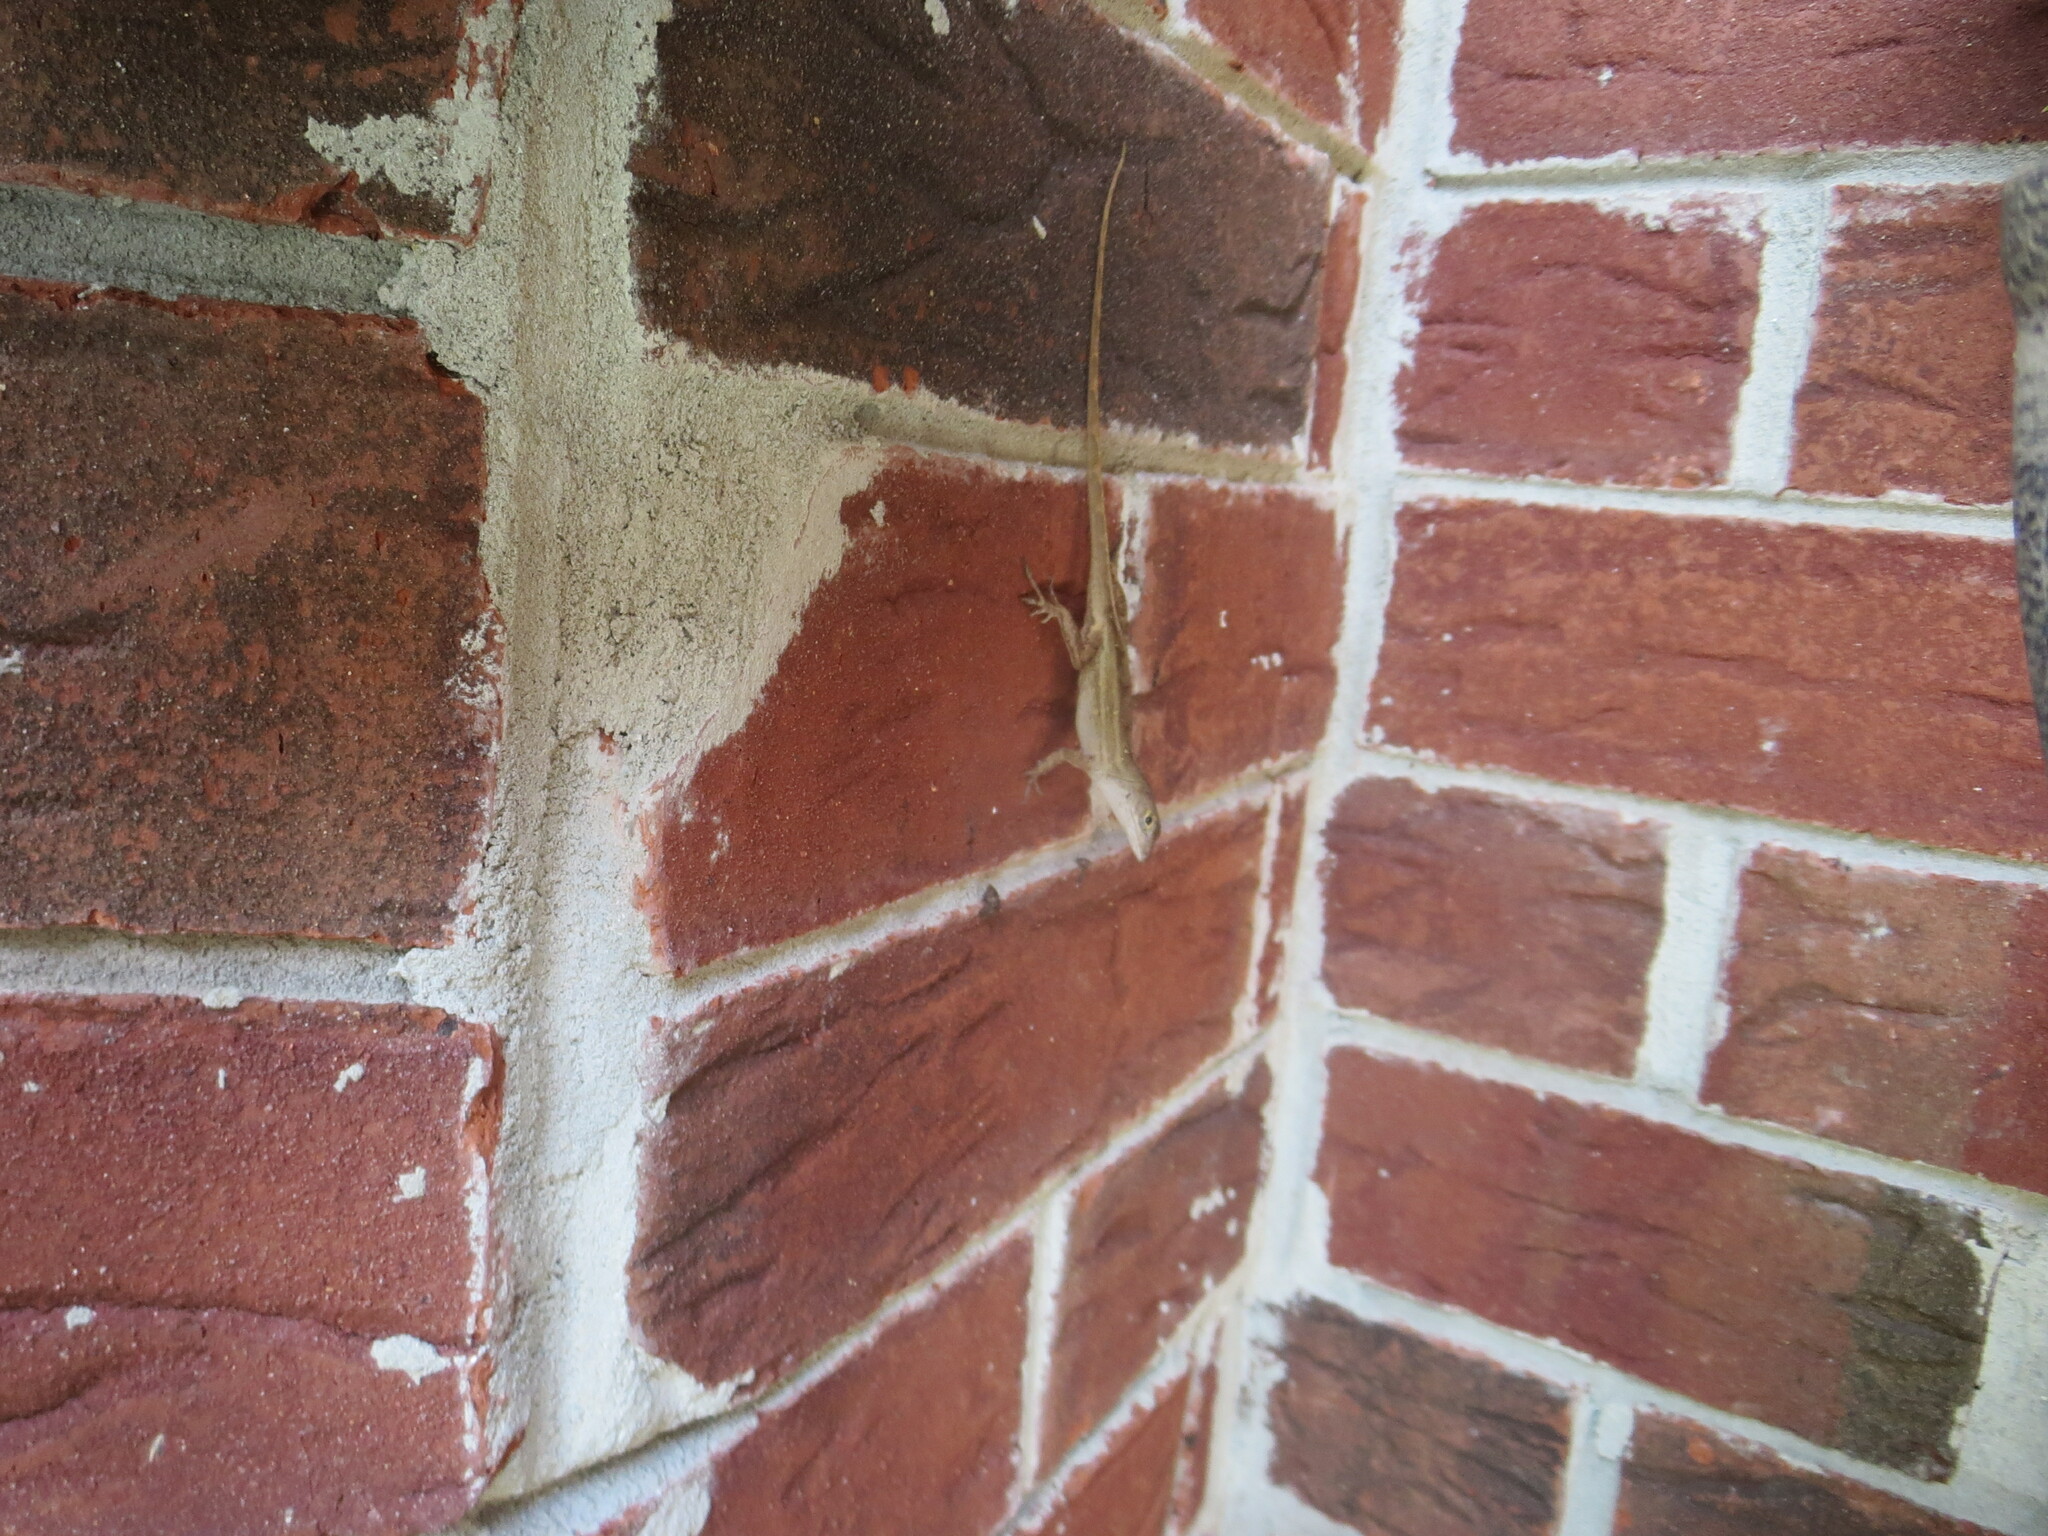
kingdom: Animalia
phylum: Chordata
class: Squamata
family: Dactyloidae
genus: Anolis
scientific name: Anolis sagrei
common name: Brown anole
